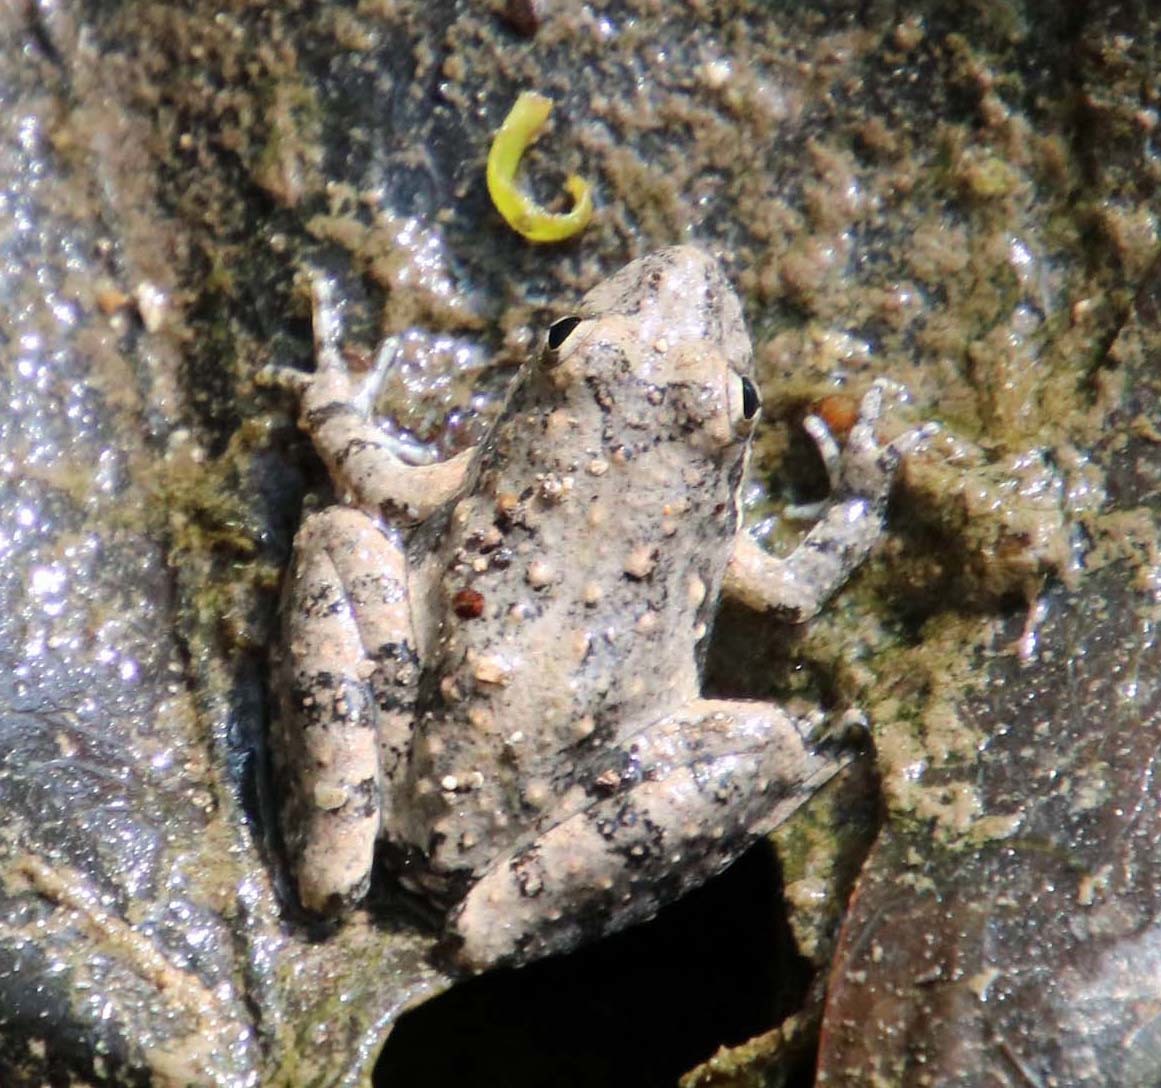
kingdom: Animalia
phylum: Chordata
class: Amphibia
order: Anura
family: Hylidae
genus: Acris
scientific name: Acris blanchardi
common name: Blanchard's cricket frog
